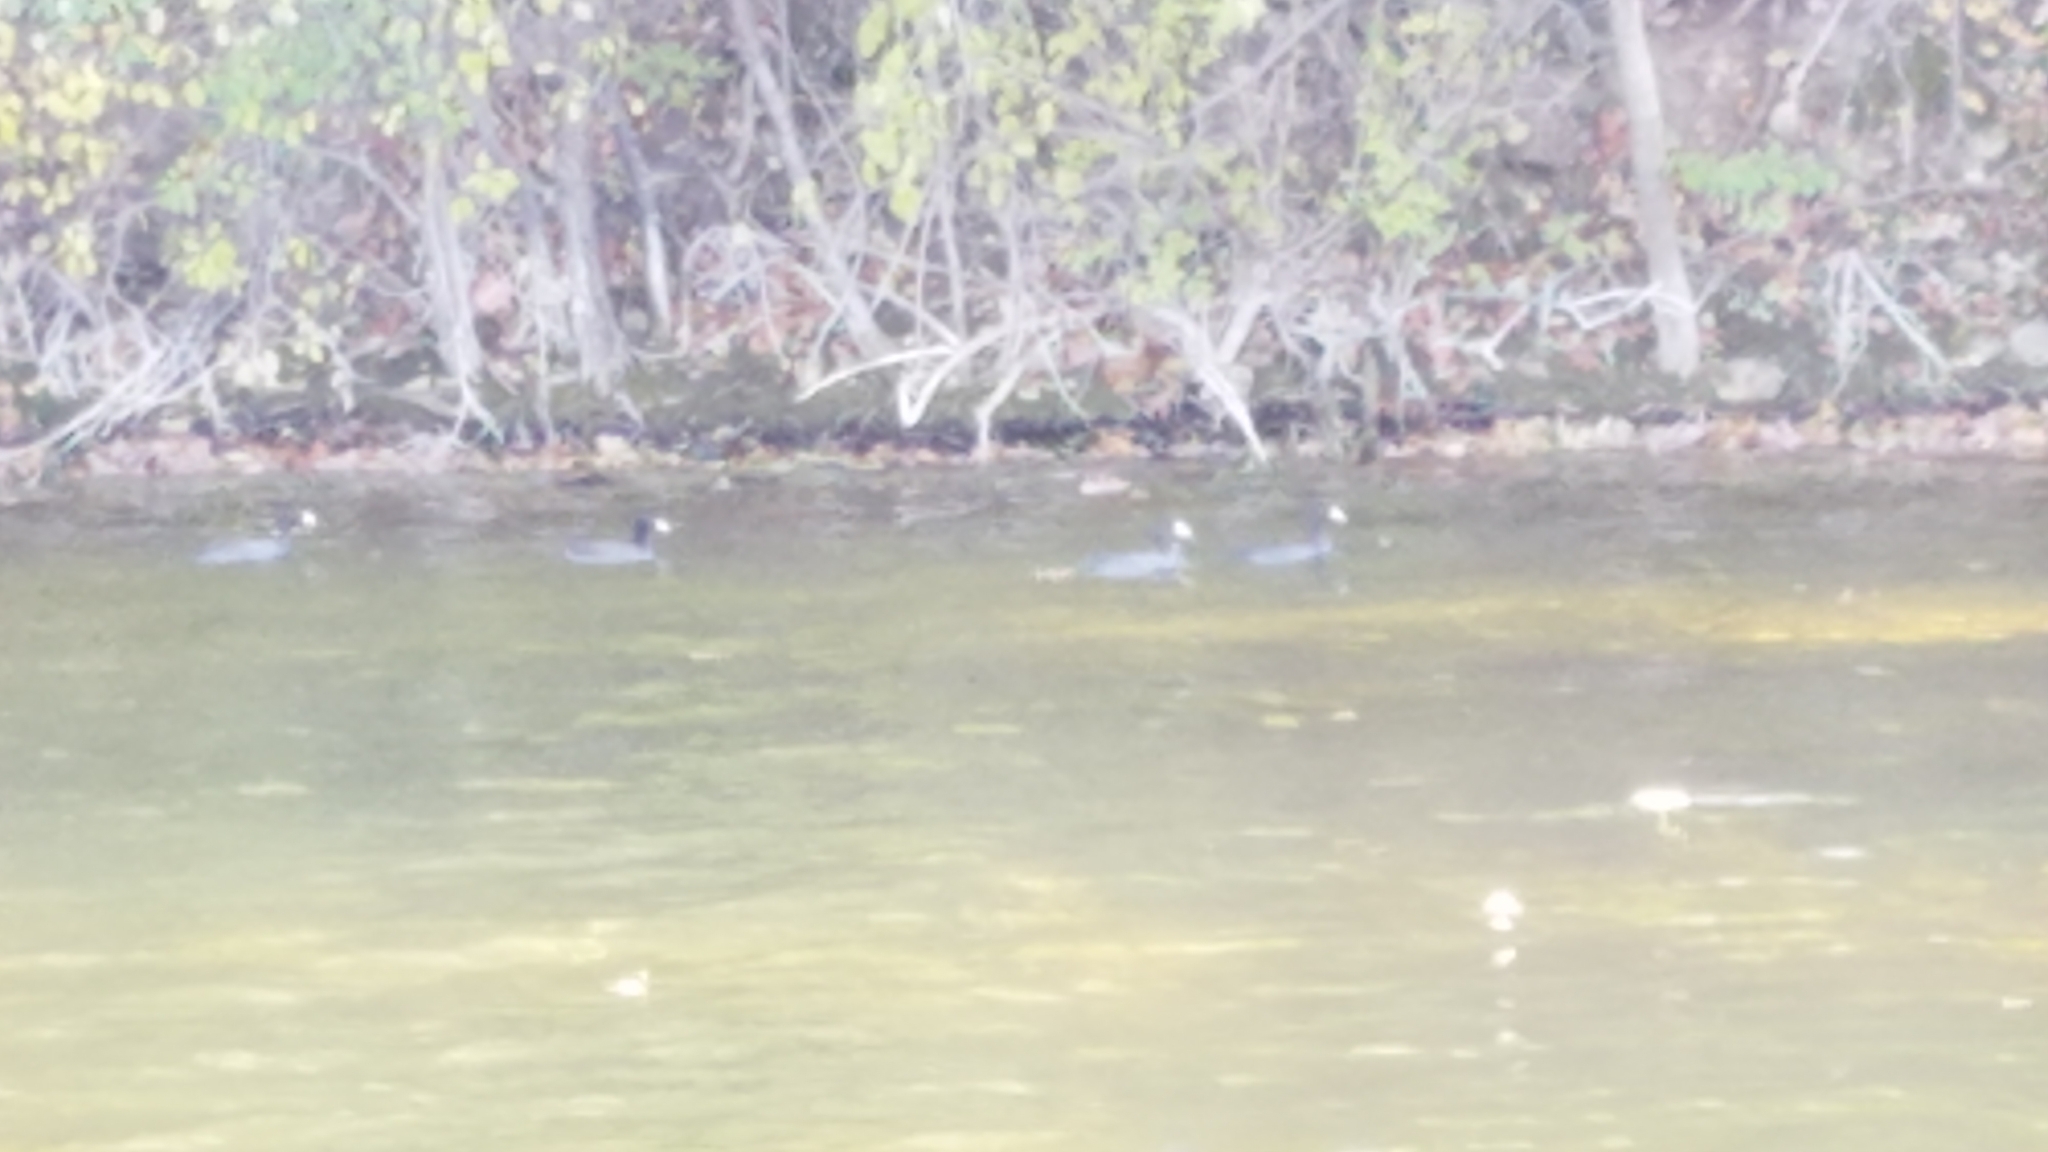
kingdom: Animalia
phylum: Chordata
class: Aves
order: Gruiformes
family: Rallidae
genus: Fulica
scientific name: Fulica americana
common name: American coot
